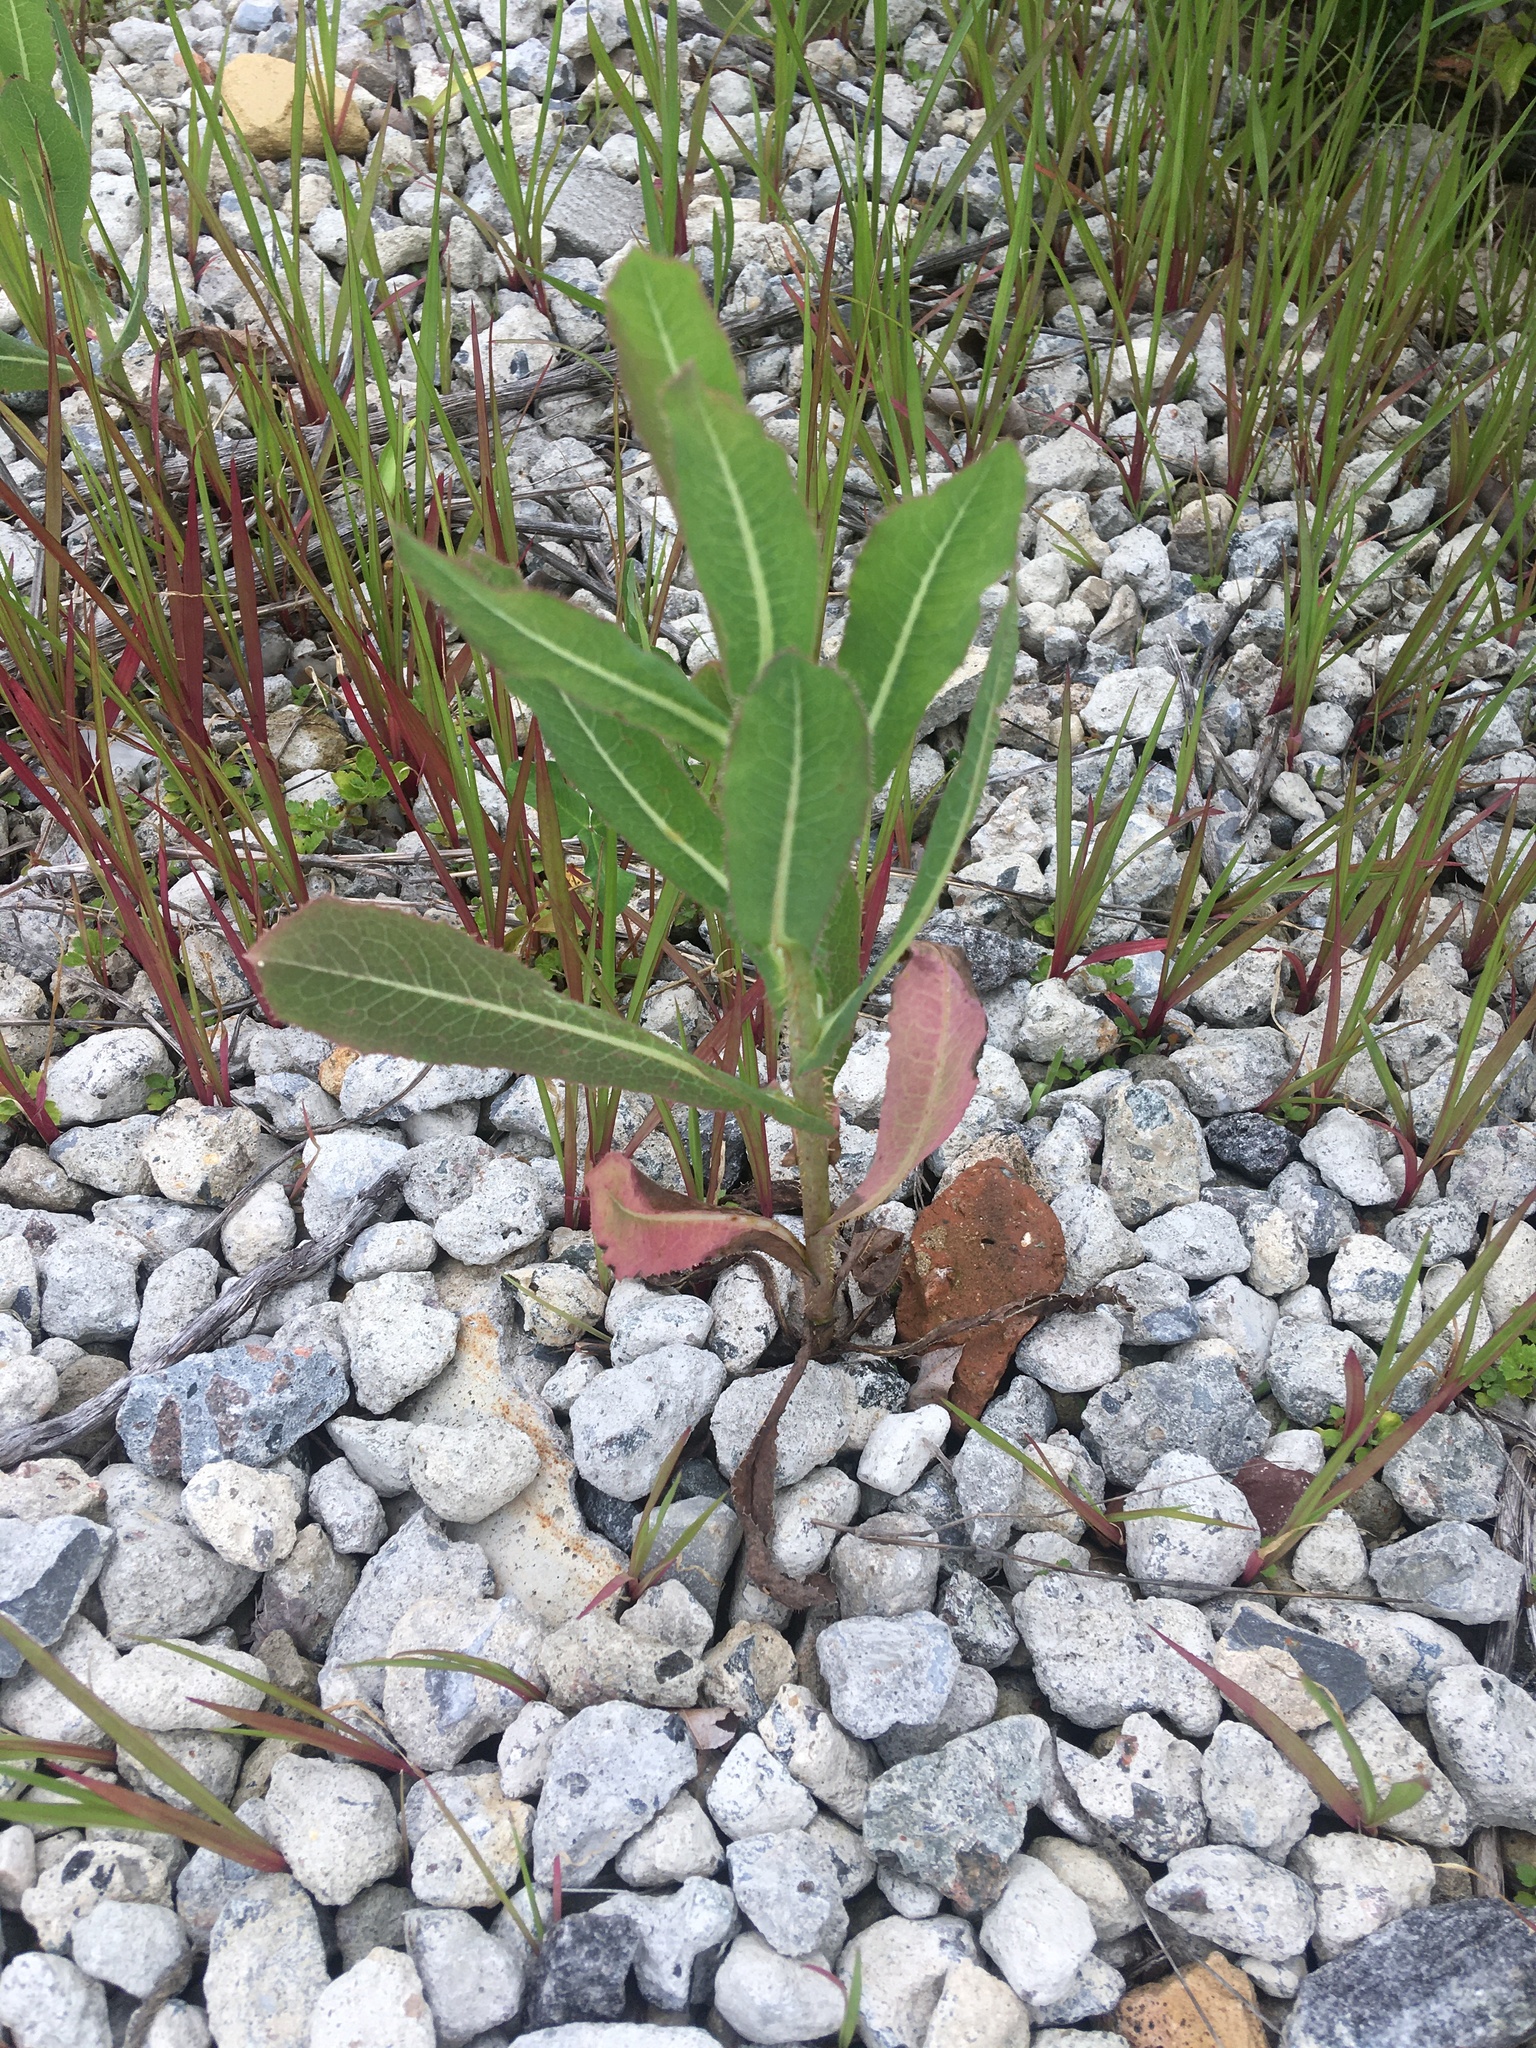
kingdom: Plantae
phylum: Tracheophyta
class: Magnoliopsida
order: Asterales
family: Asteraceae
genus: Lactuca
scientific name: Lactuca serriola
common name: Prickly lettuce
